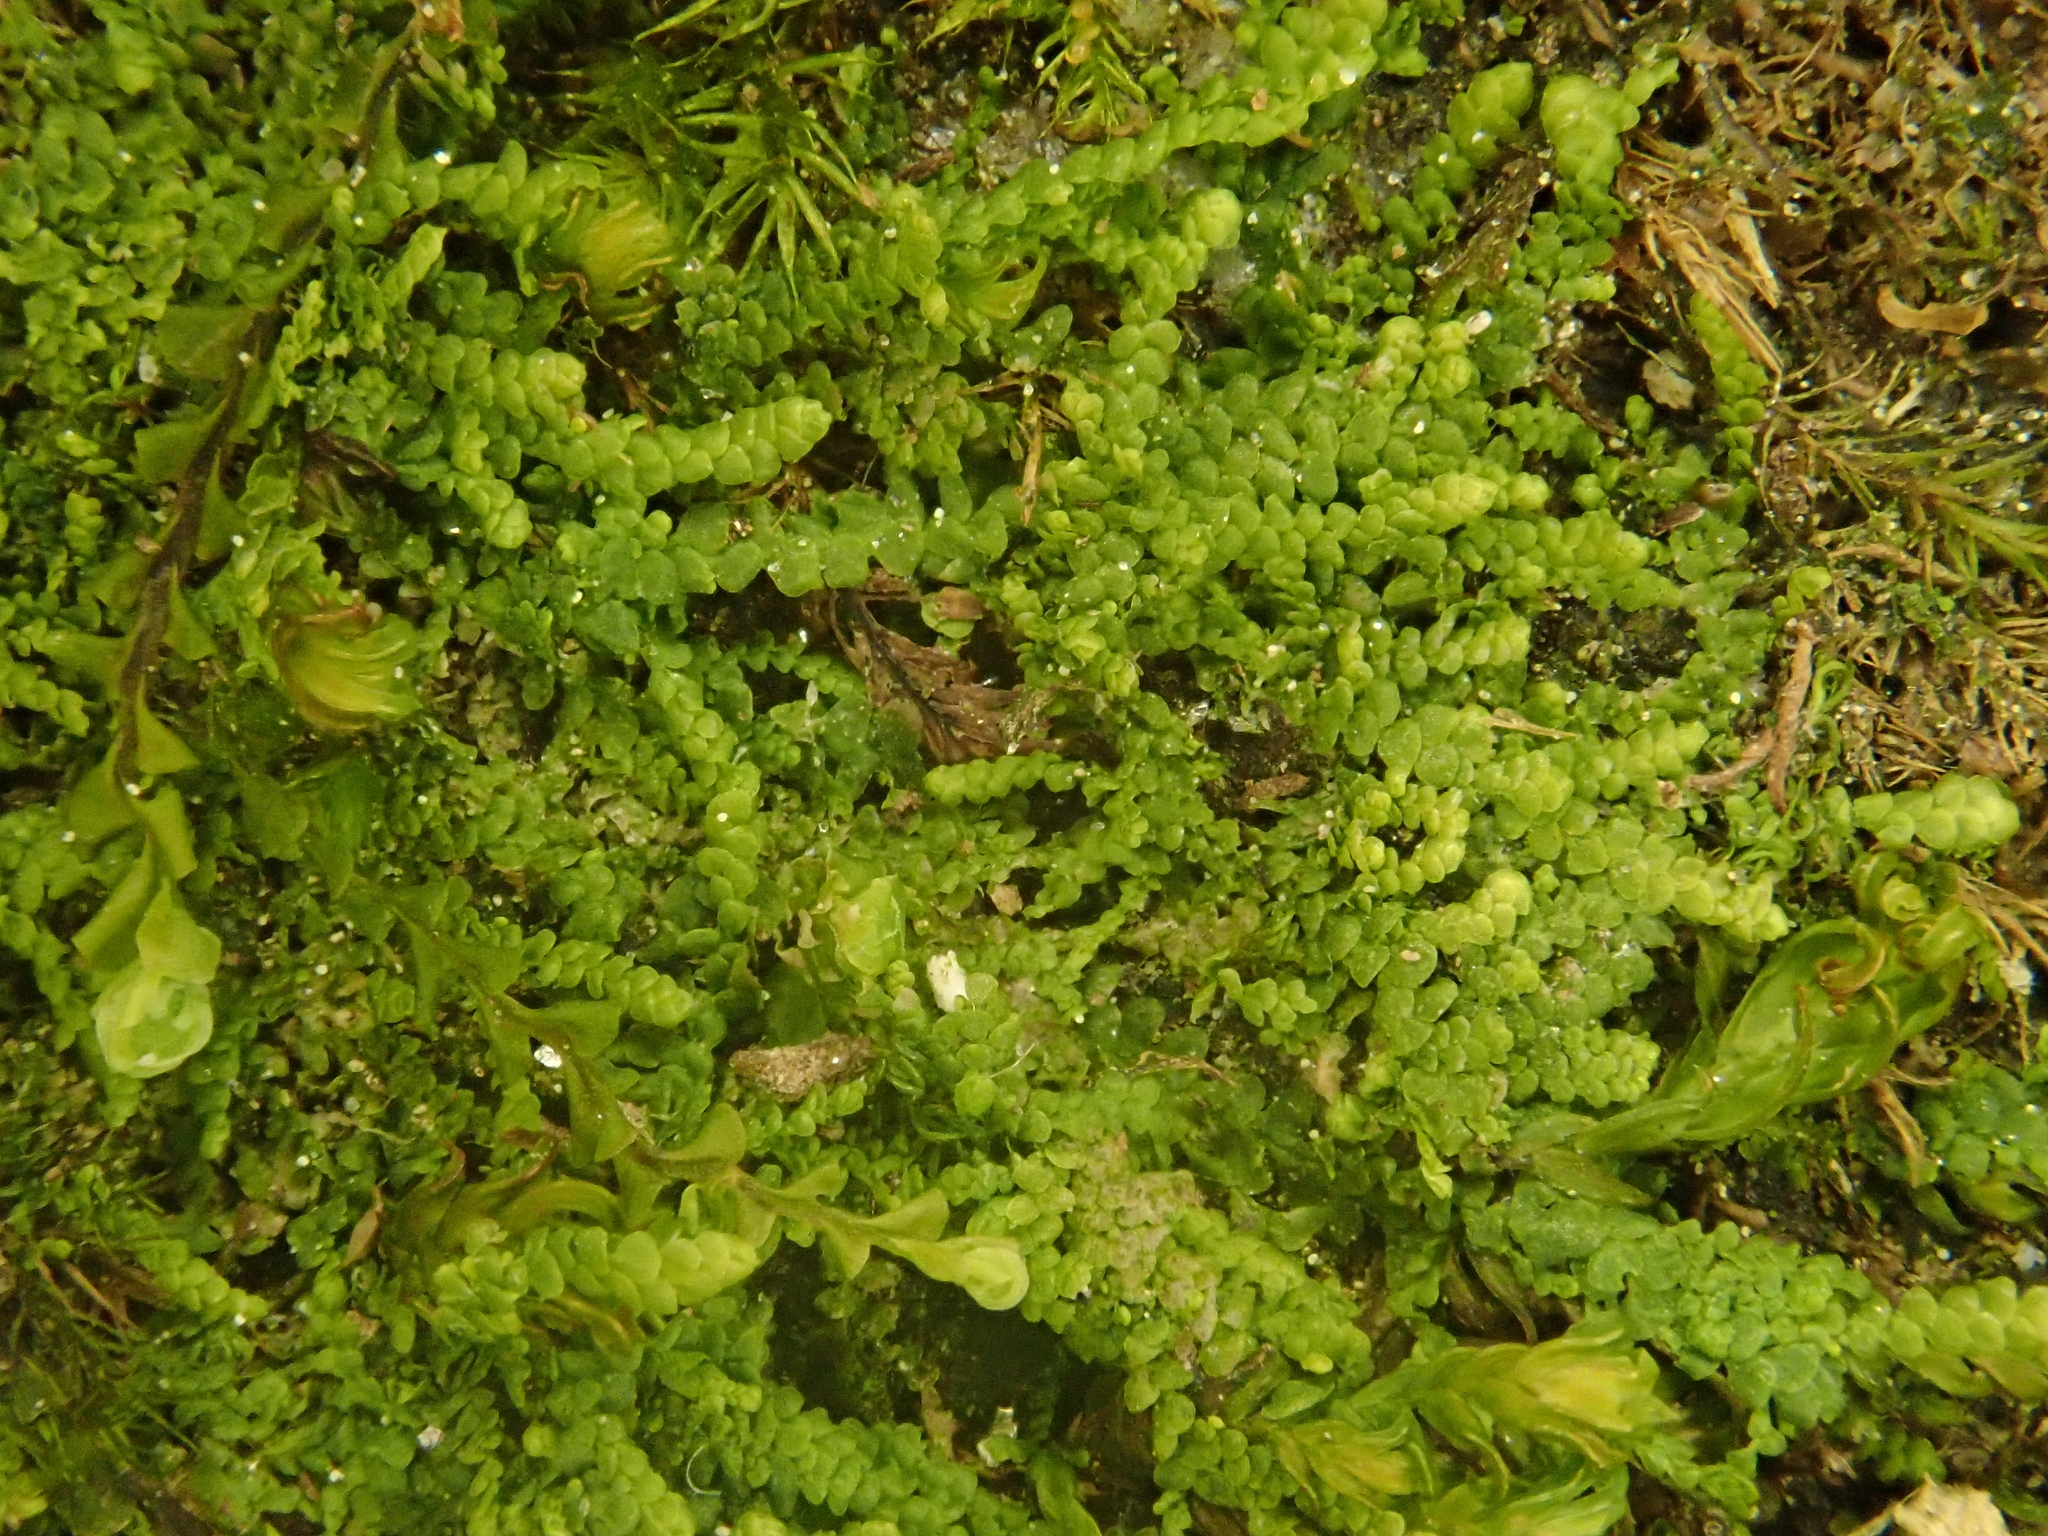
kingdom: Plantae
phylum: Marchantiophyta
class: Jungermanniopsida
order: Porellales
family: Lejeuneaceae
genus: Lejeunea
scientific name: Lejeunea cavifolia
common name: Least pouncewort
